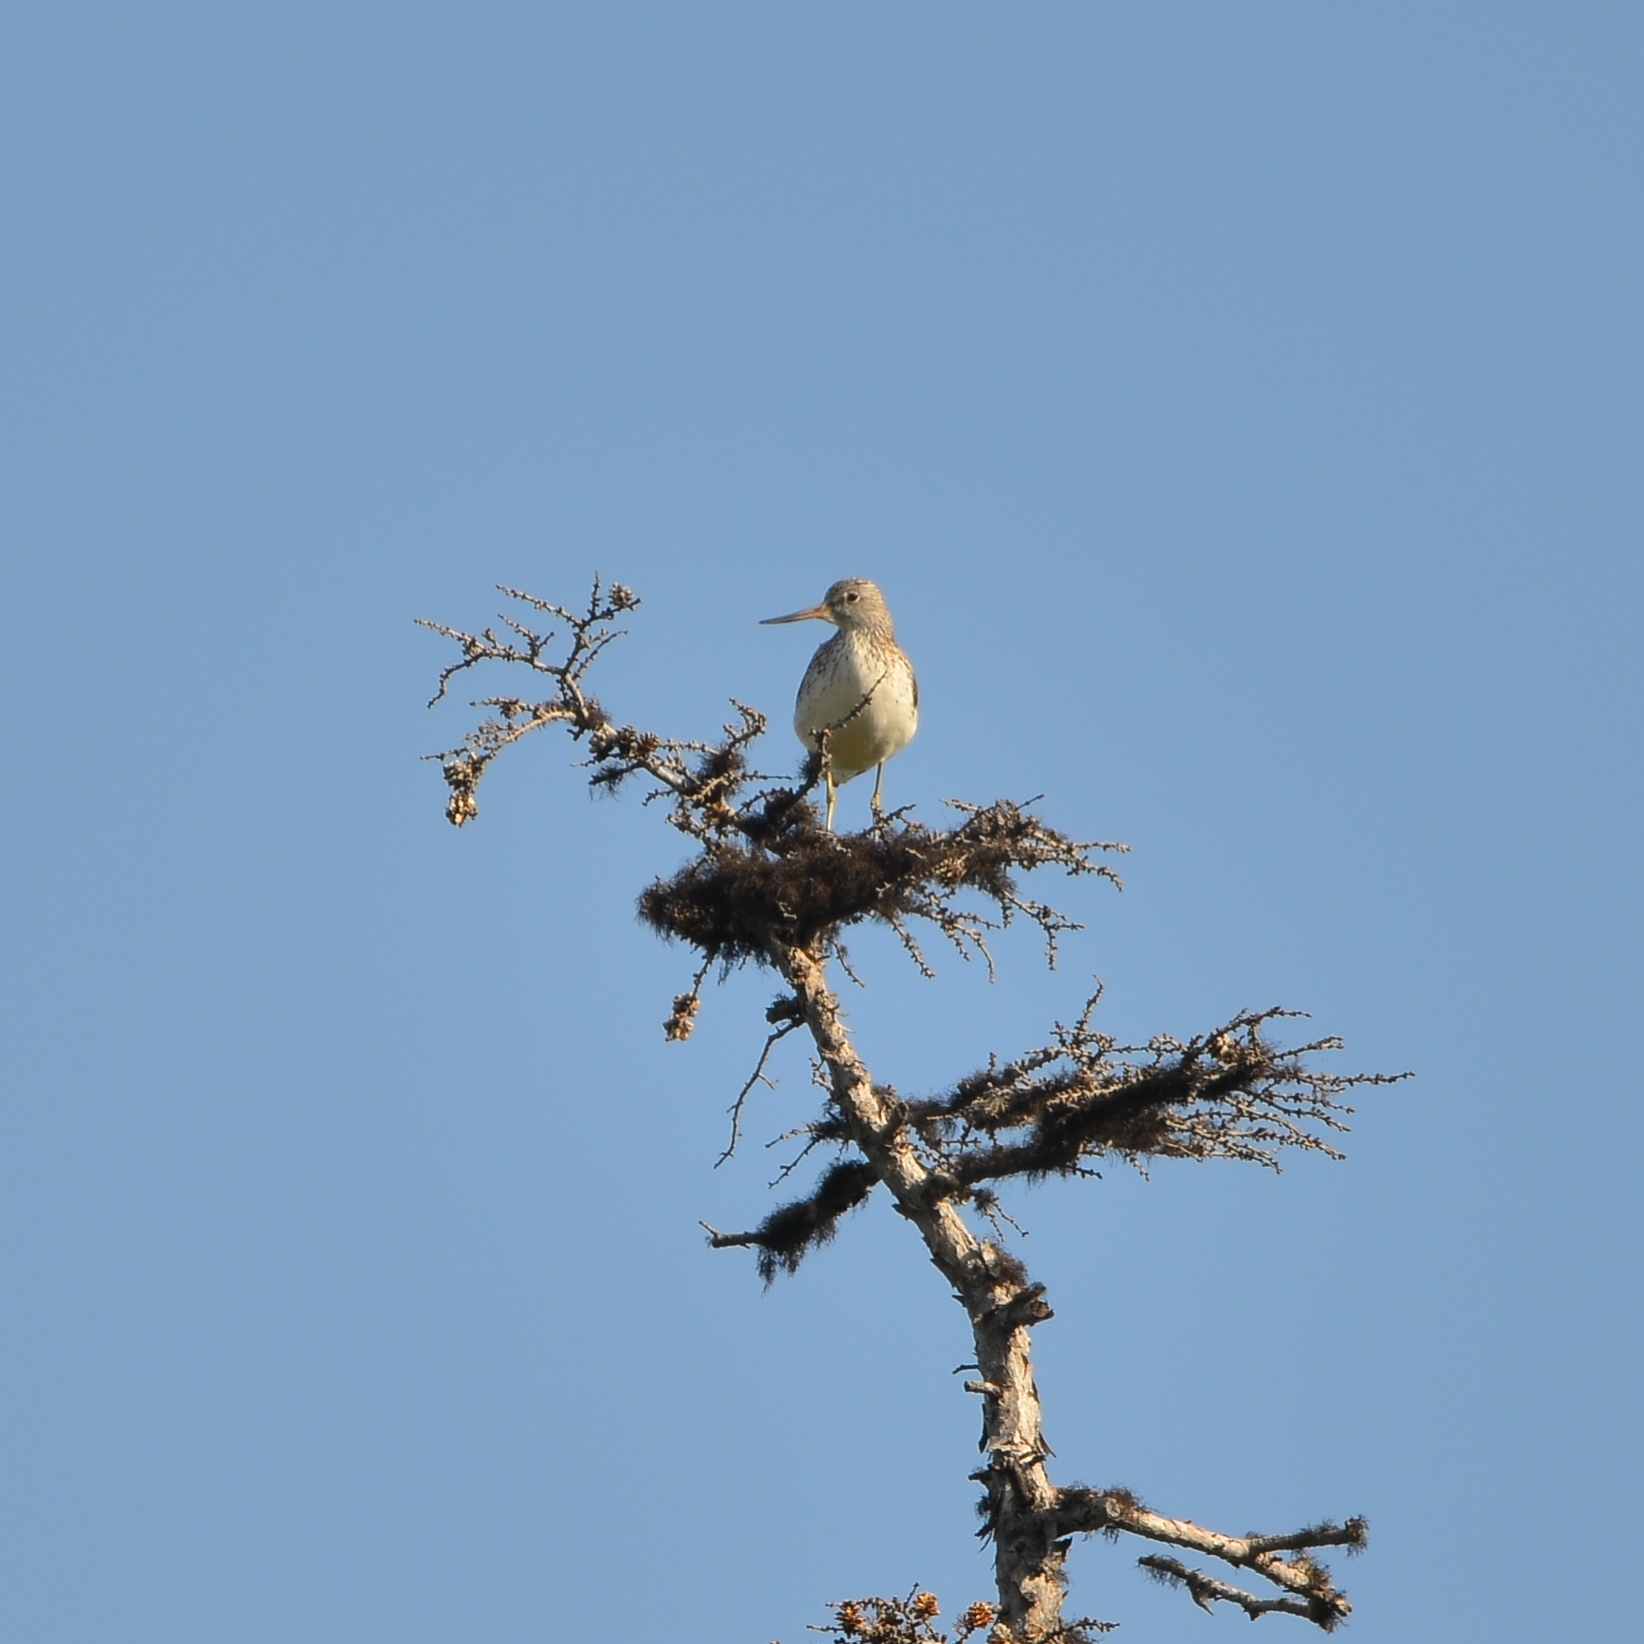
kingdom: Animalia
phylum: Chordata
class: Aves
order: Charadriiformes
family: Scolopacidae
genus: Tringa
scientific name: Tringa nebularia
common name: Common greenshank
